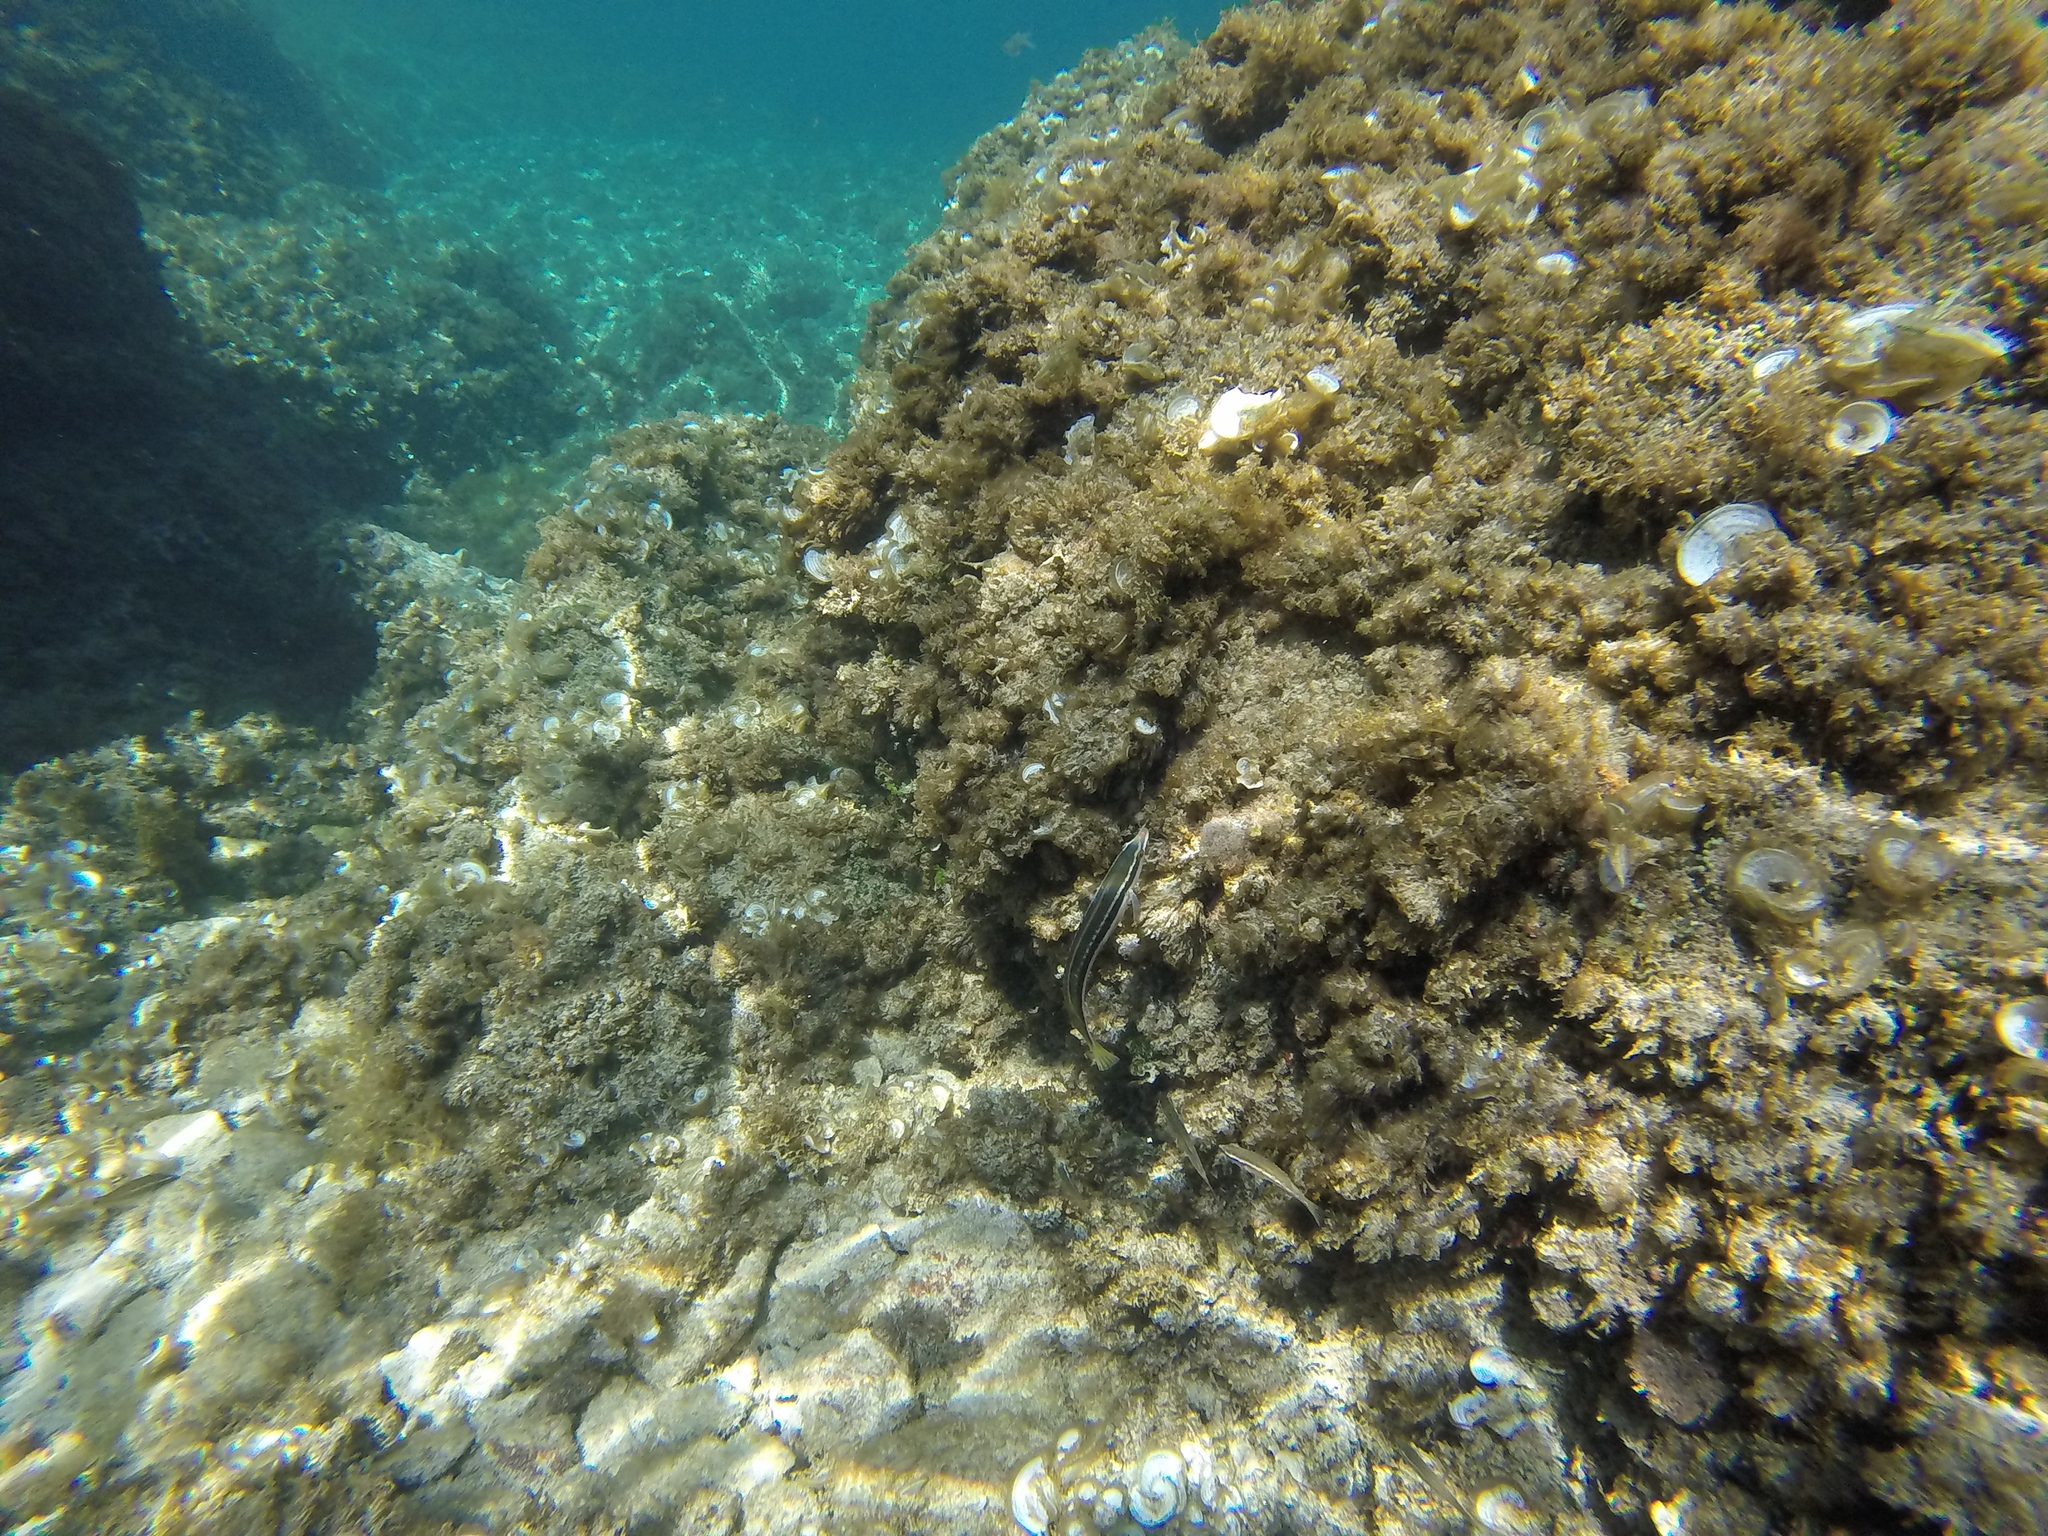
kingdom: Animalia
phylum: Chordata
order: Perciformes
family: Labridae
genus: Coris
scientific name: Coris julis
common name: Rainbow wrasse
